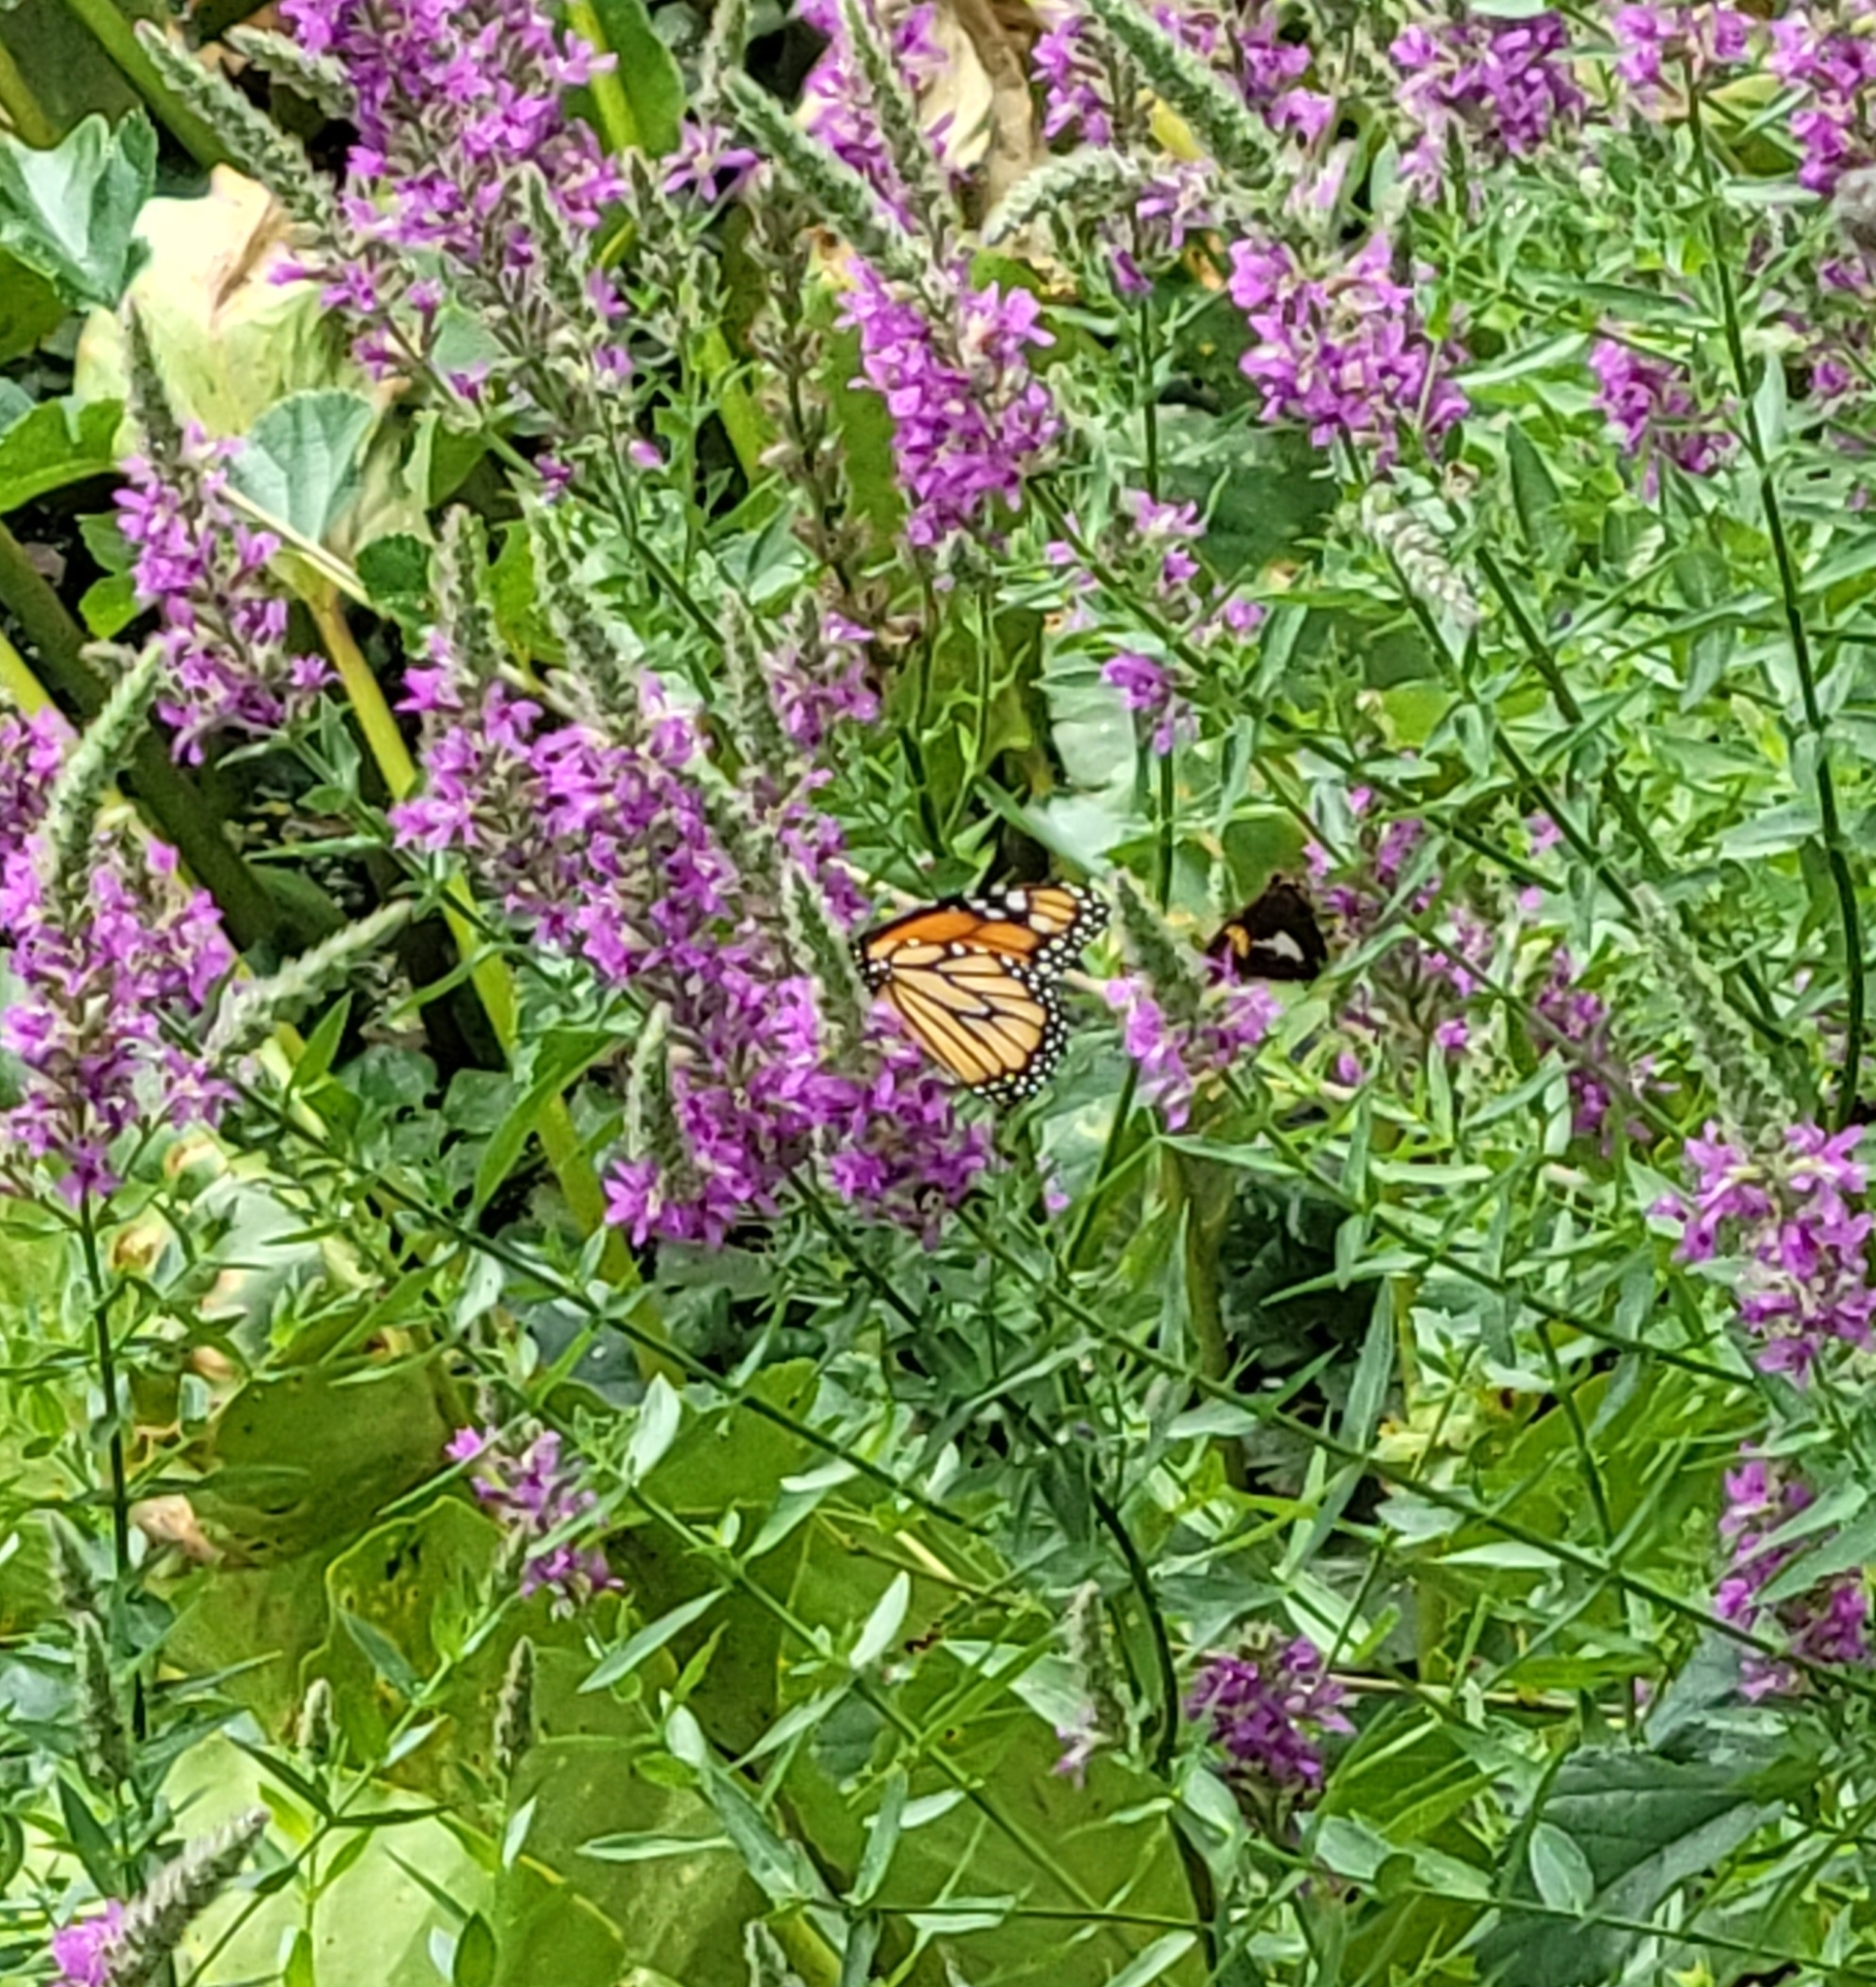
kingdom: Animalia
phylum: Arthropoda
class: Insecta
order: Lepidoptera
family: Nymphalidae
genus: Danaus
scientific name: Danaus plexippus
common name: Monarch
